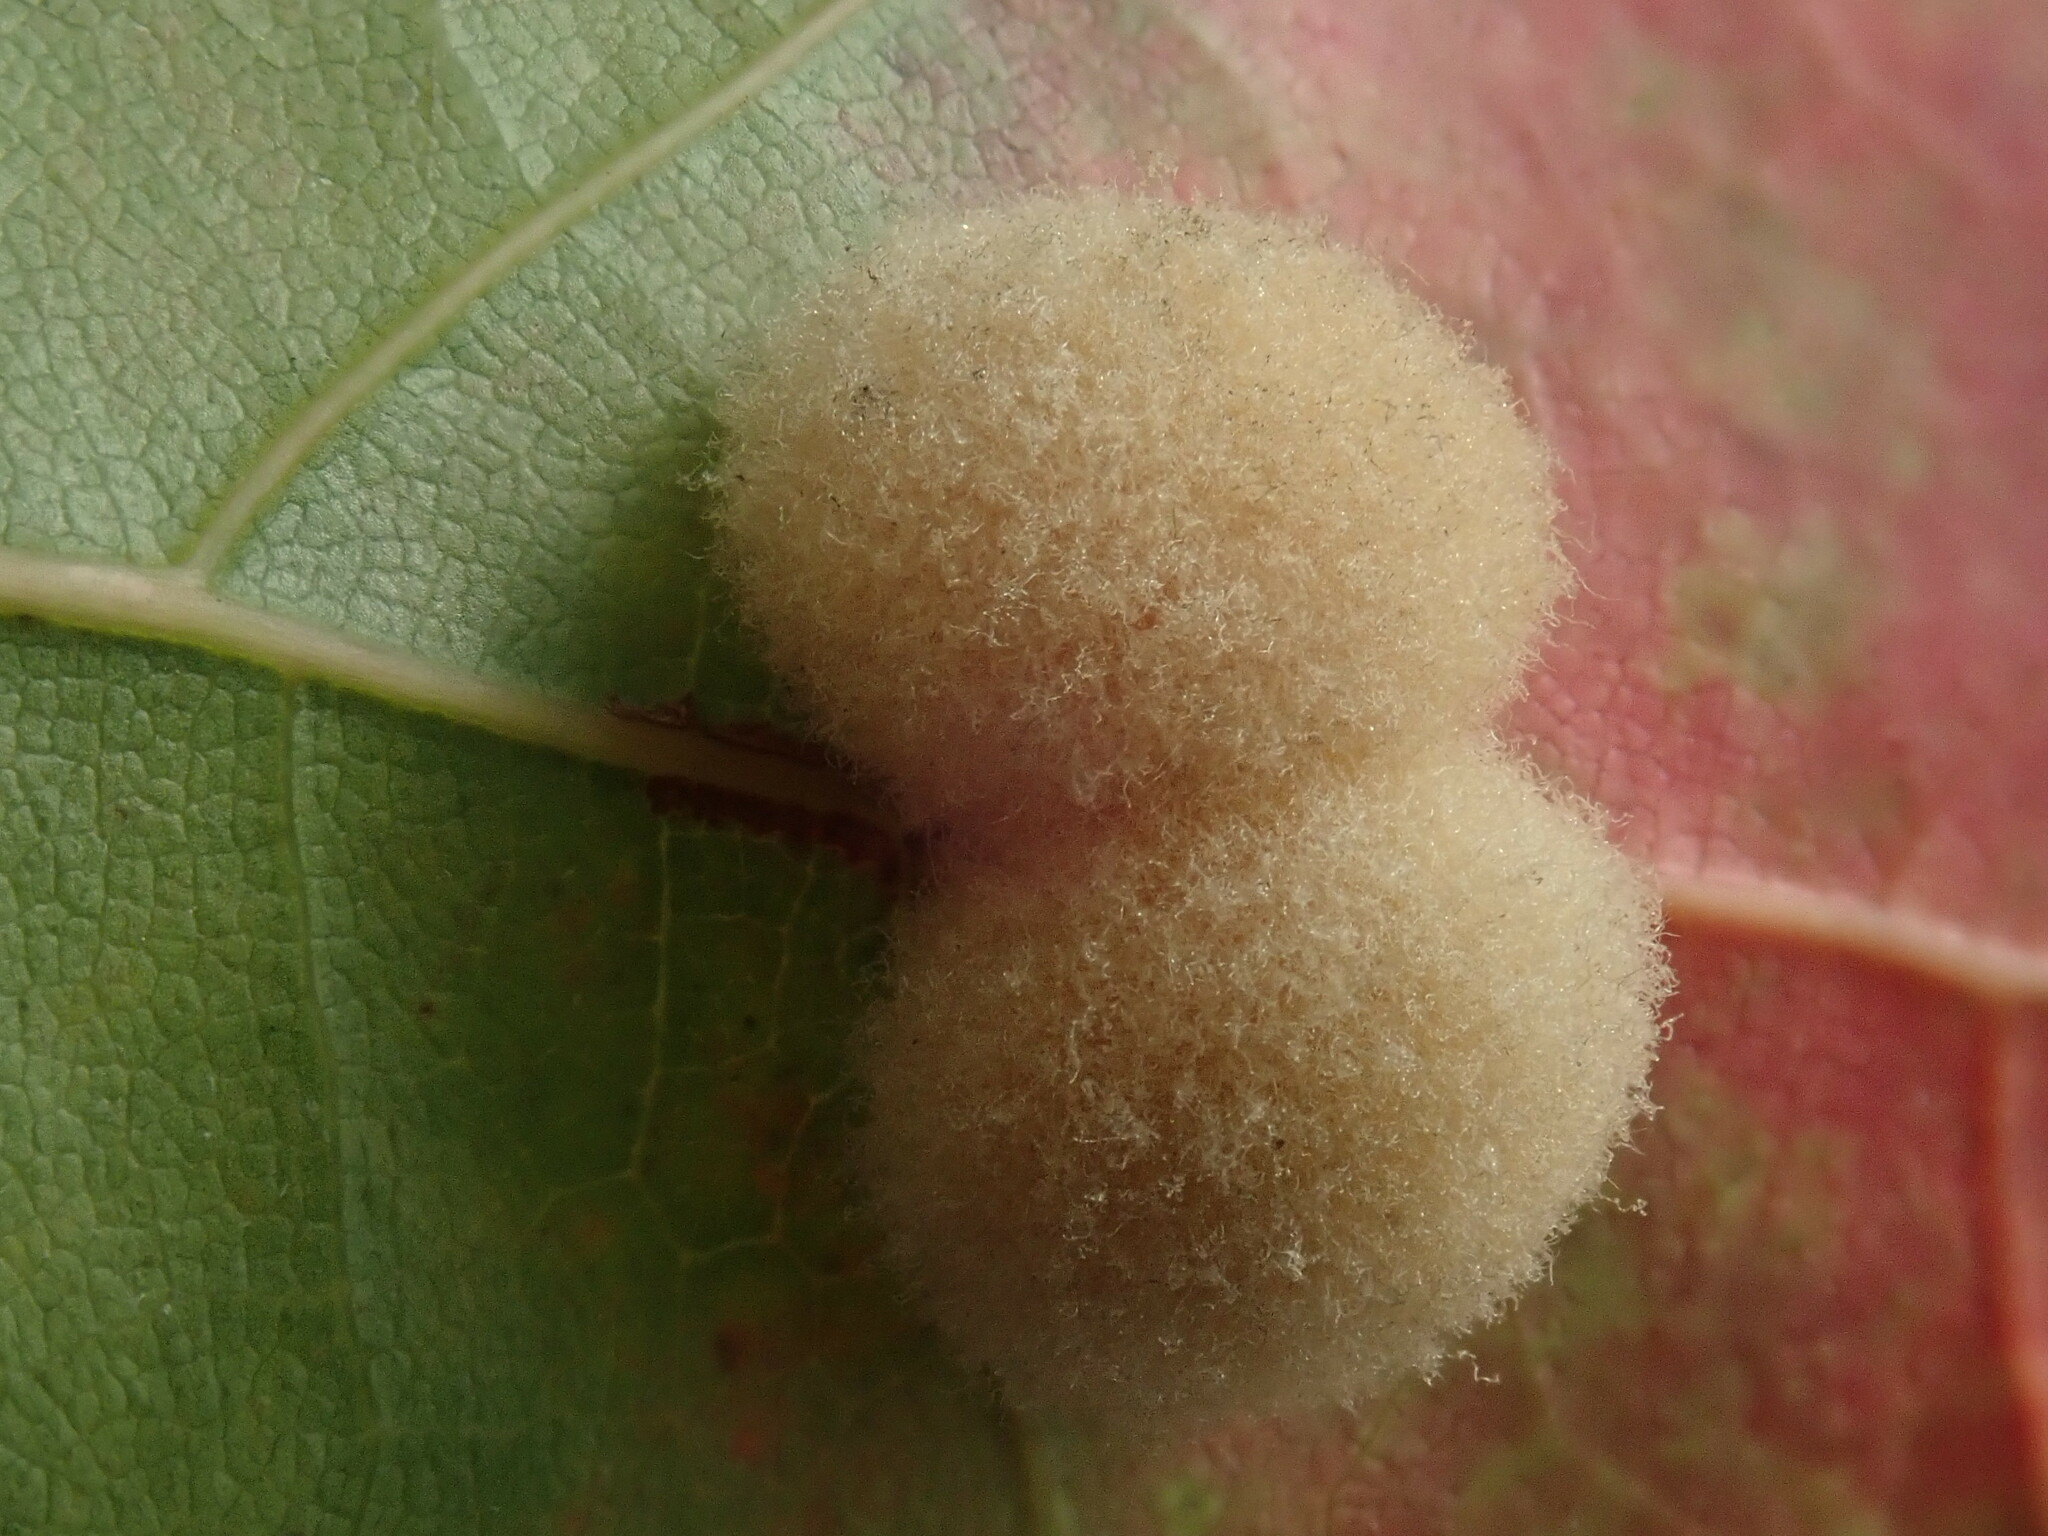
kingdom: Animalia
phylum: Arthropoda
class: Insecta
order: Hymenoptera
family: Cynipidae
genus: Callirhytis
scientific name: Callirhytis
